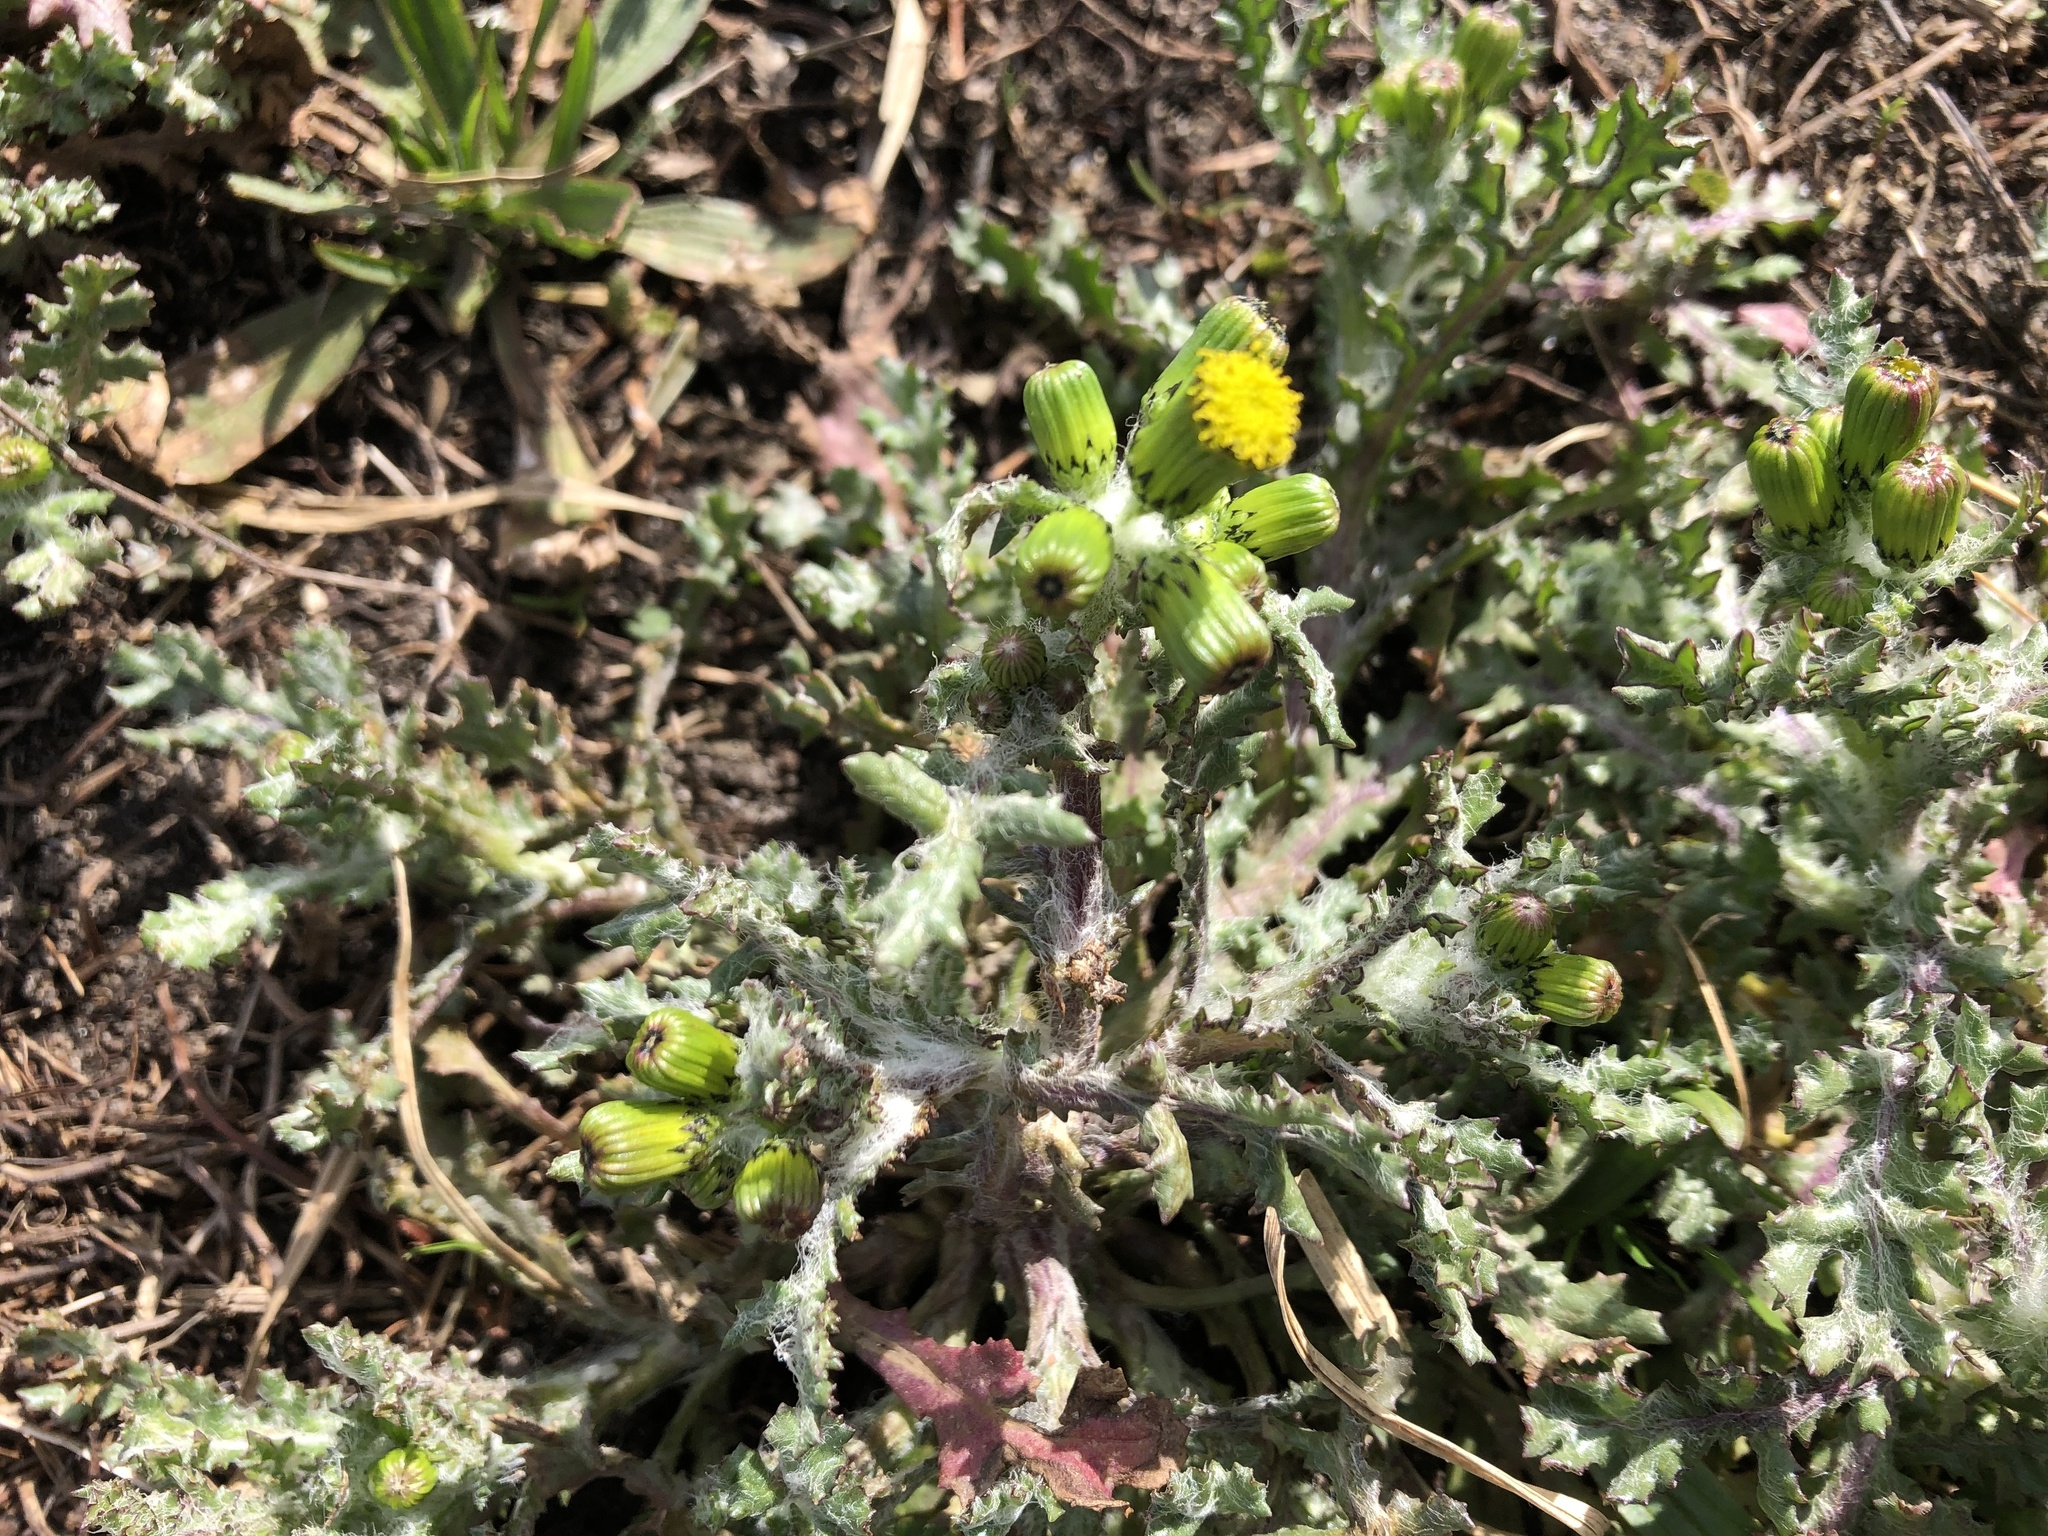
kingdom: Plantae
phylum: Tracheophyta
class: Magnoliopsida
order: Asterales
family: Asteraceae
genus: Senecio
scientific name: Senecio vulgaris
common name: Old-man-in-the-spring
